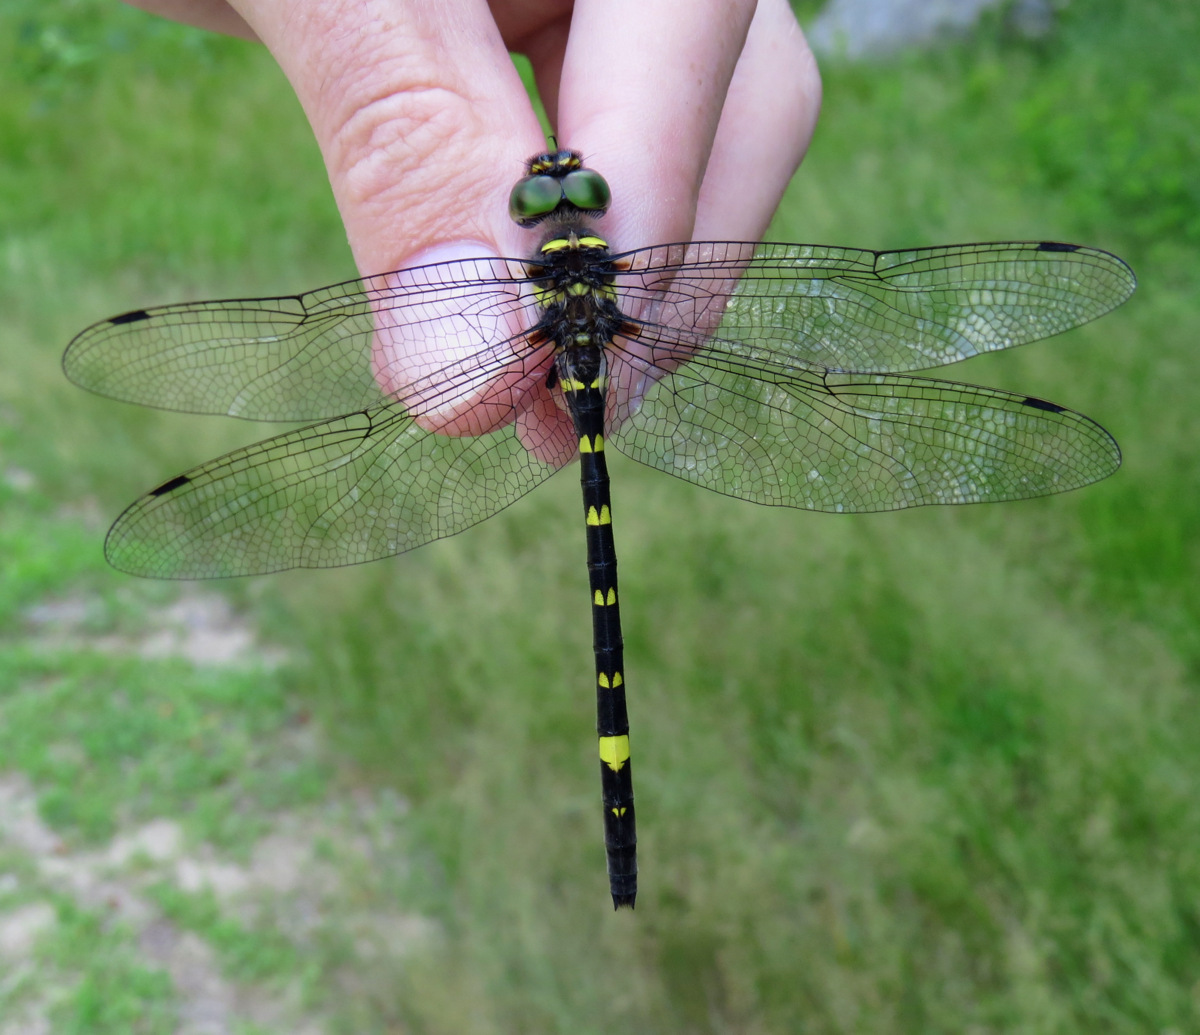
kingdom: Animalia
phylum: Arthropoda
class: Insecta
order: Odonata
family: Macromiidae
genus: Macromia
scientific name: Macromia alleghaniensis
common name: Allegheny river cruiser
